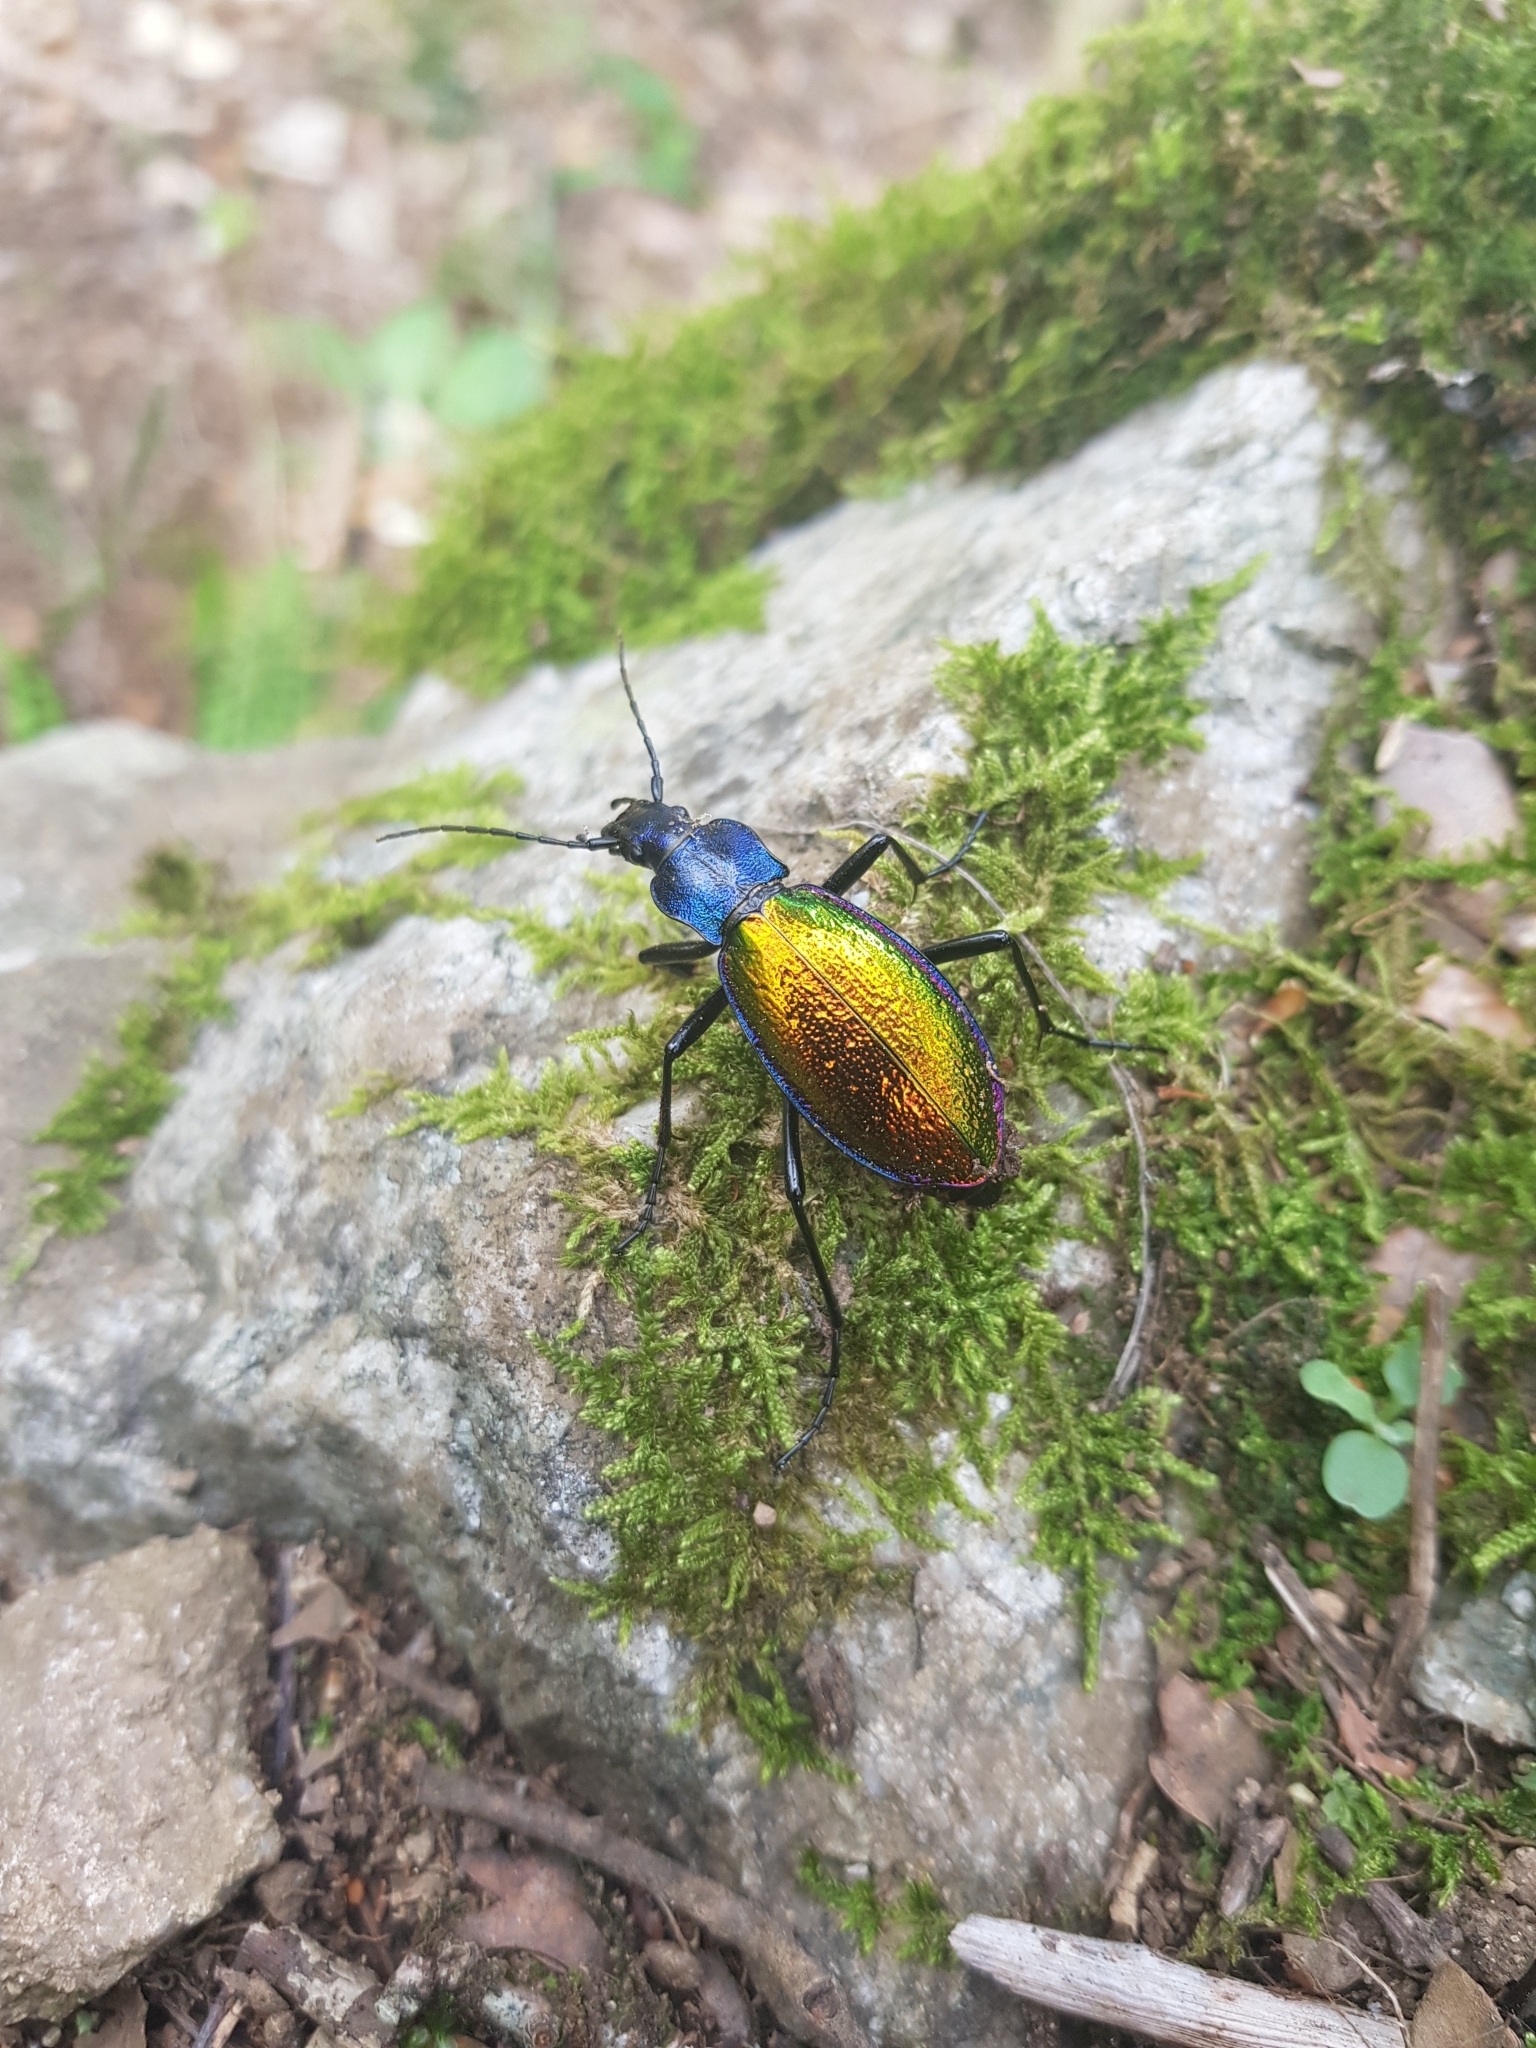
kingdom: Animalia
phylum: Arthropoda
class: Insecta
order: Coleoptera
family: Carabidae
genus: Carabus
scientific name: Carabus hispanus
